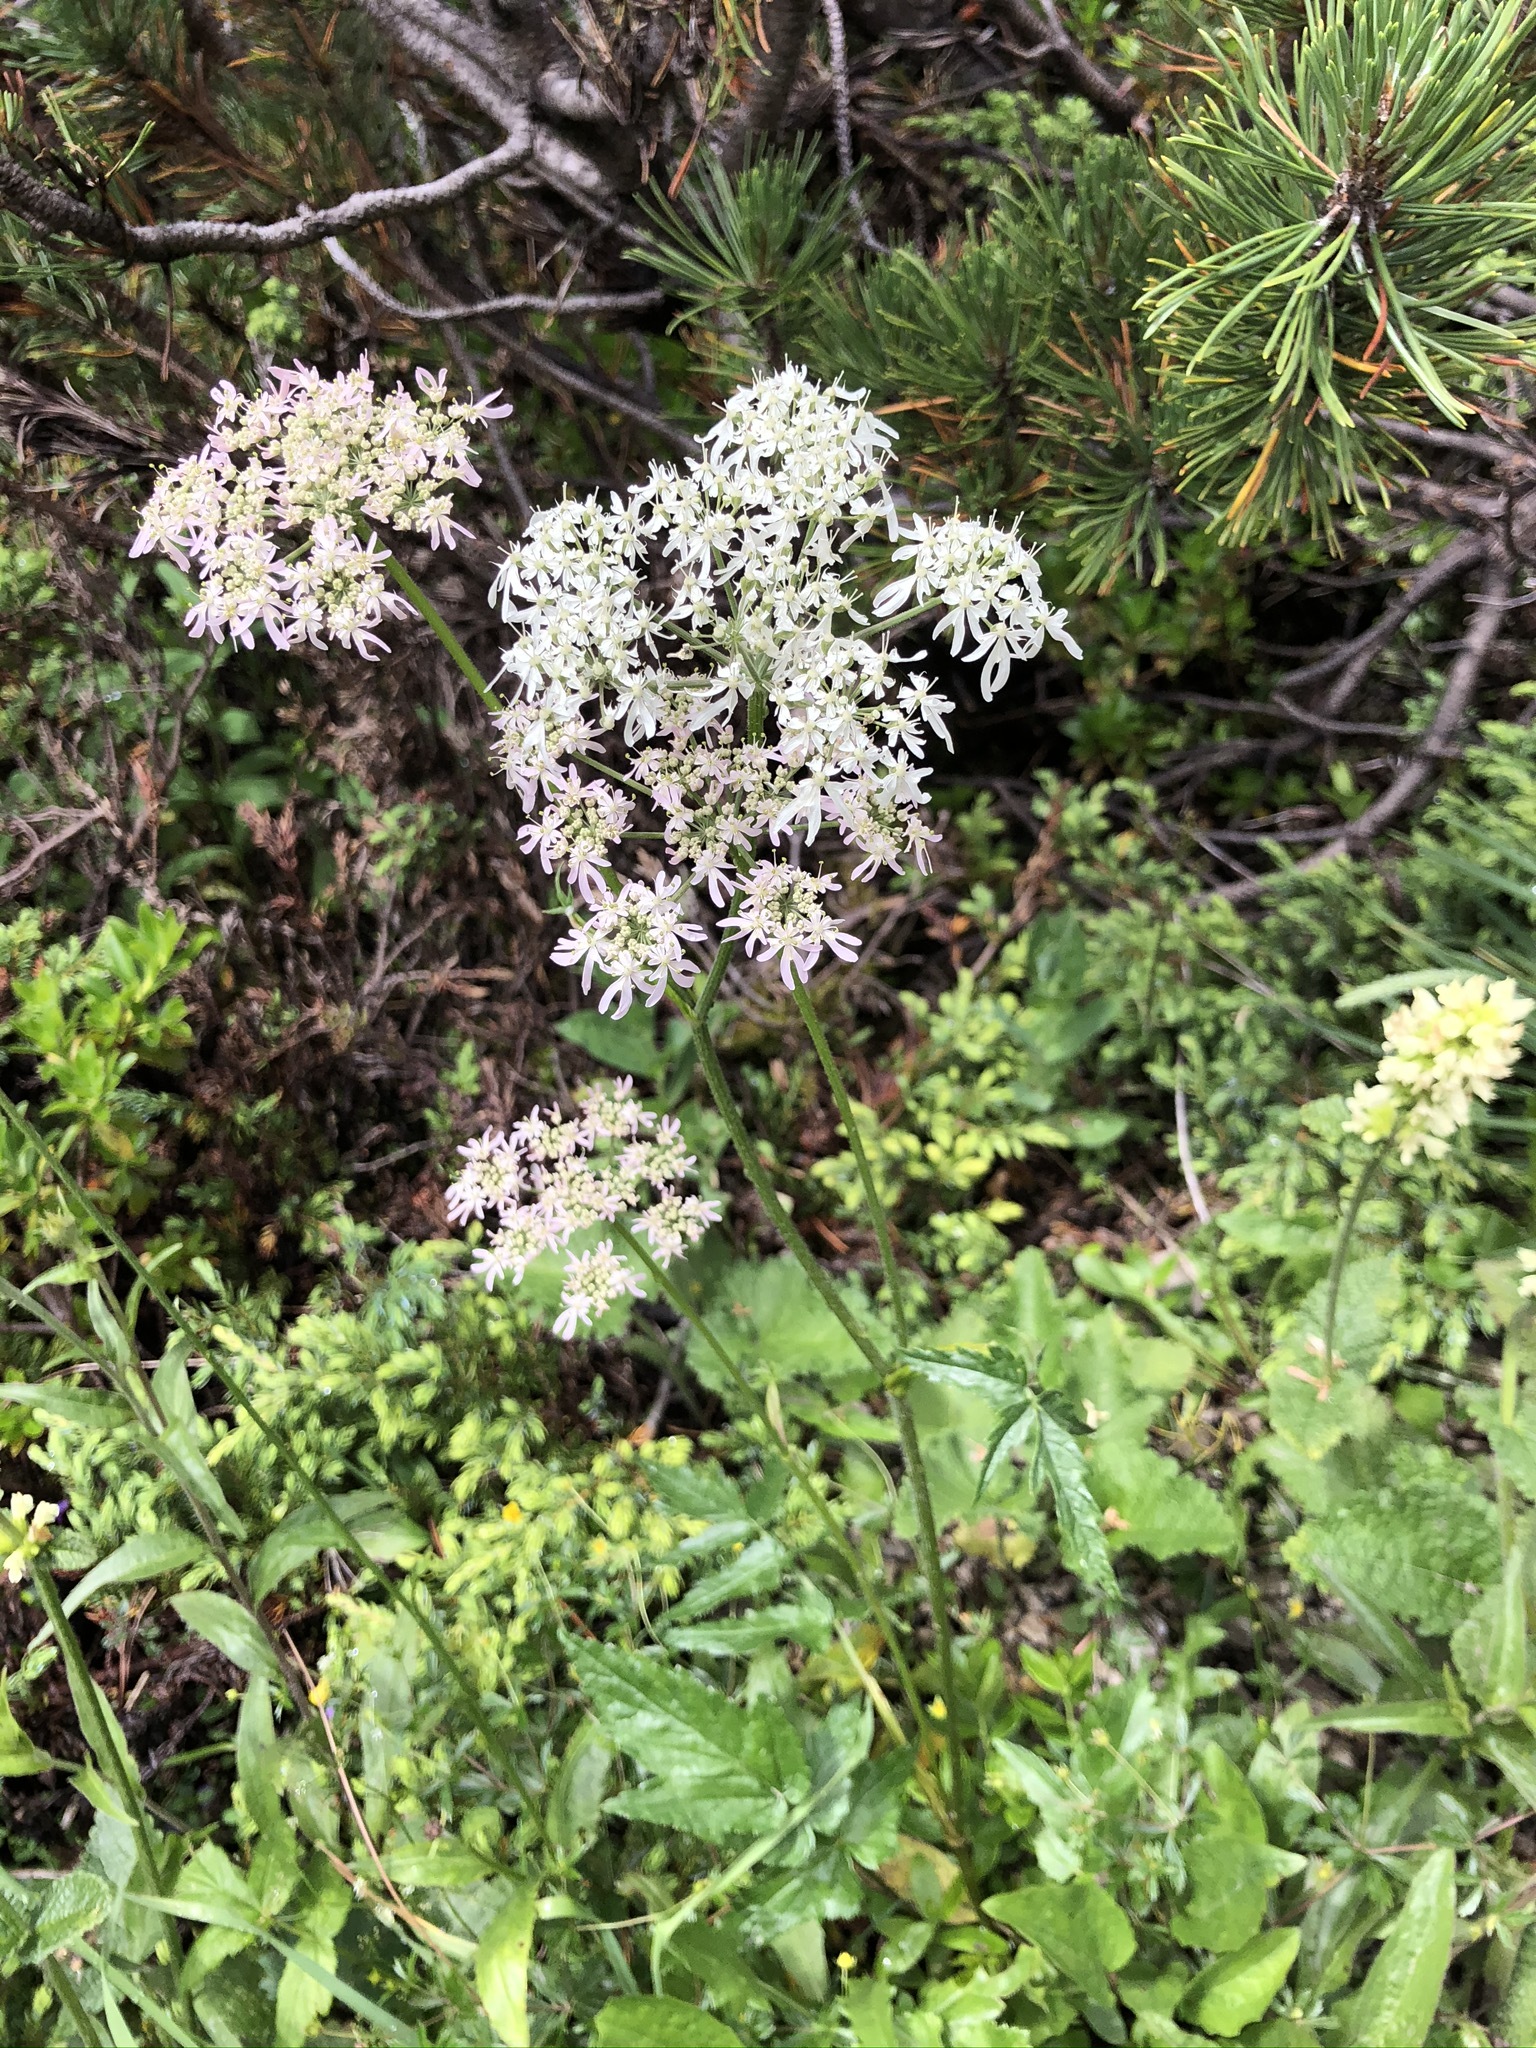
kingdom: Plantae
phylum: Tracheophyta
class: Magnoliopsida
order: Apiales
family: Apiaceae
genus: Heracleum
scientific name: Heracleum austriacum
